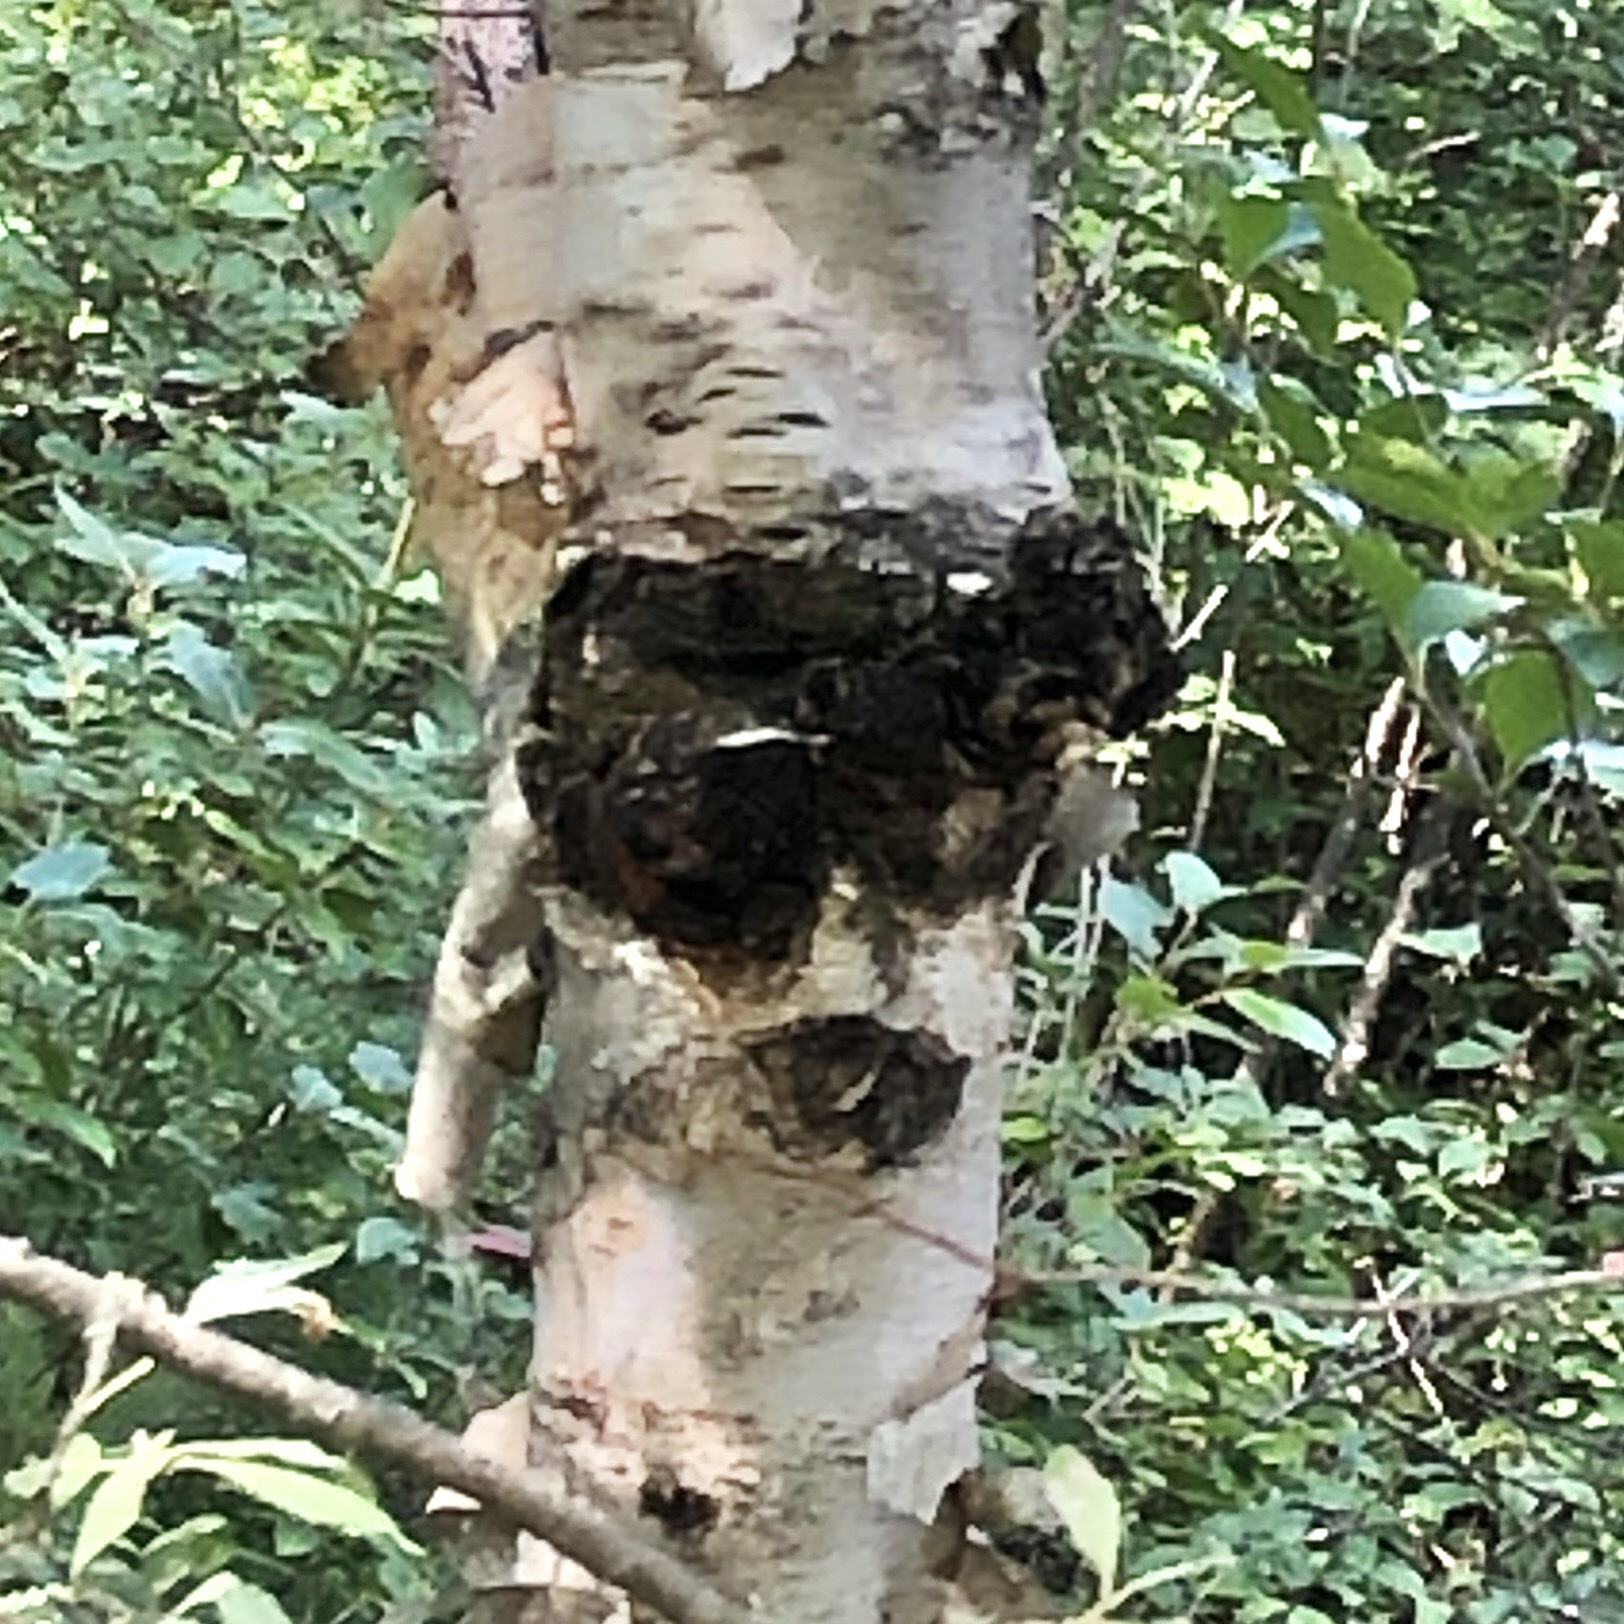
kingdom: Fungi
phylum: Basidiomycota
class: Agaricomycetes
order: Hymenochaetales
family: Hymenochaetaceae
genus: Inonotus
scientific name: Inonotus obliquus
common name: Chaga
